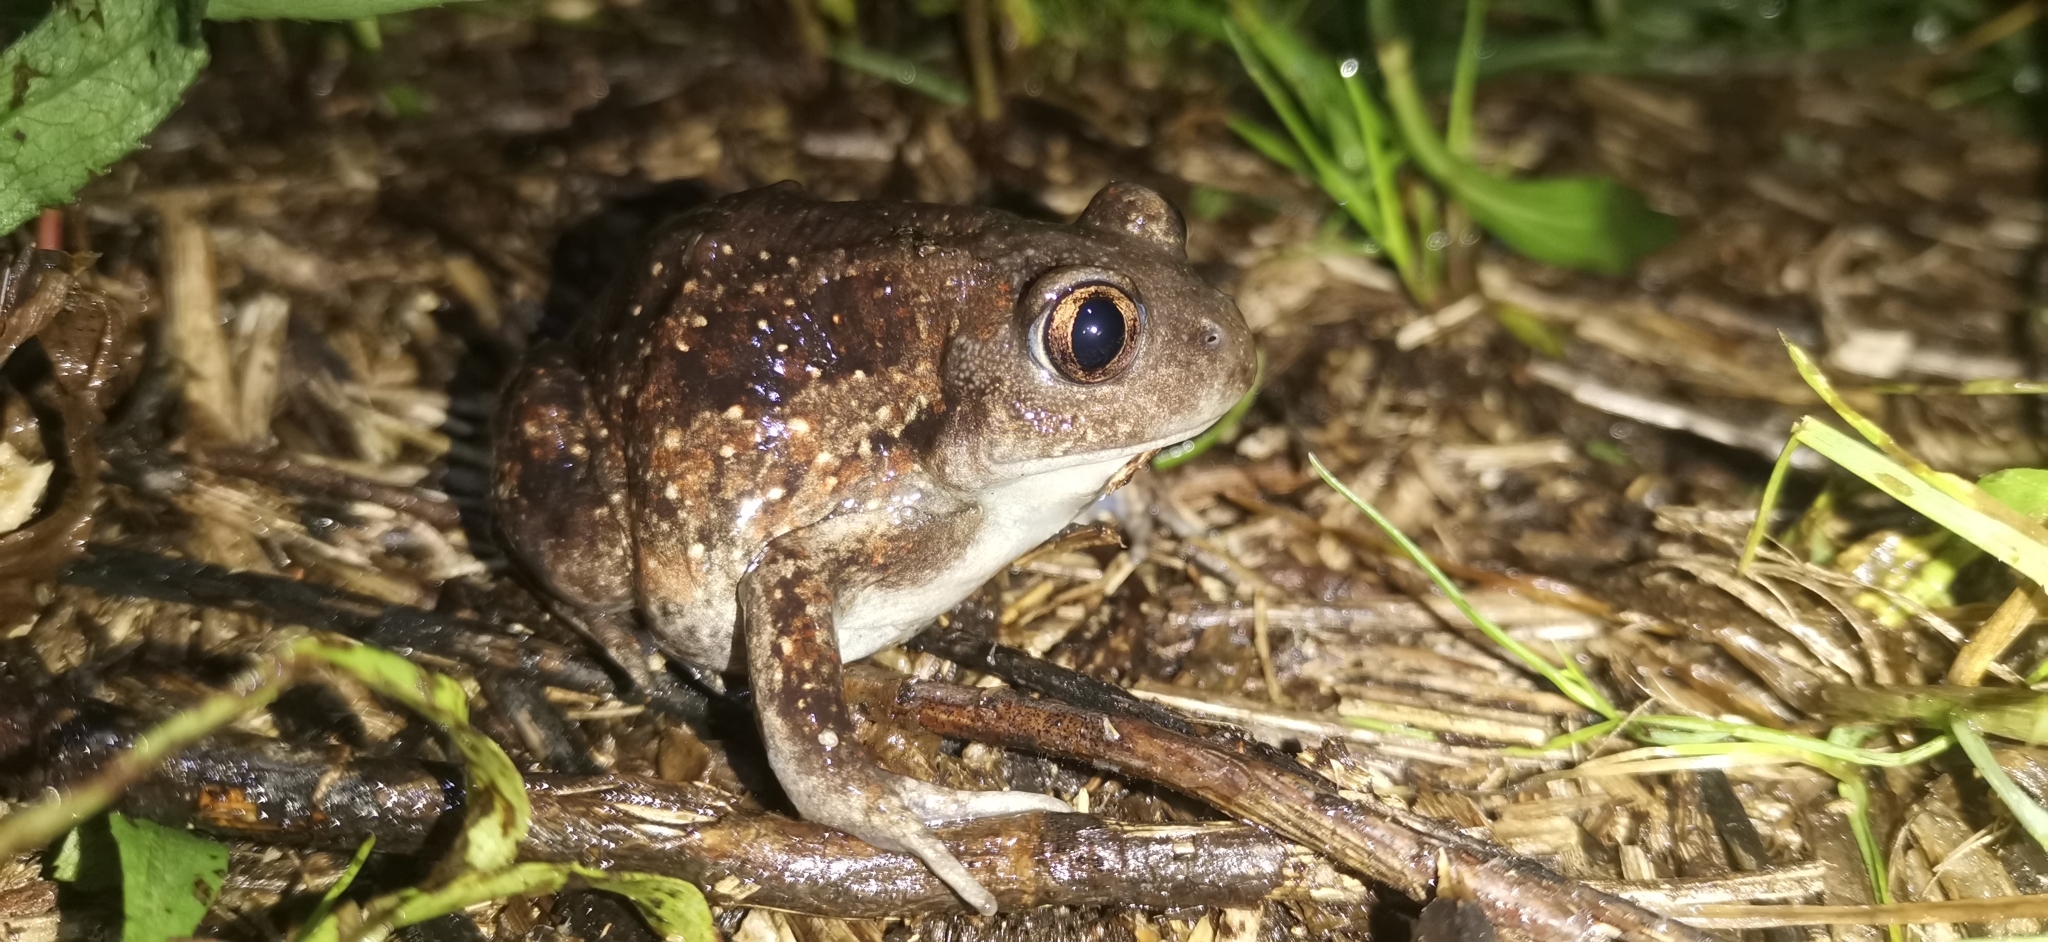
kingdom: Animalia
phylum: Chordata
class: Amphibia
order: Anura
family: Pelobatidae
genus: Pelobates
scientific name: Pelobates fuscus
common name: Common eurasian spadefoot toad
